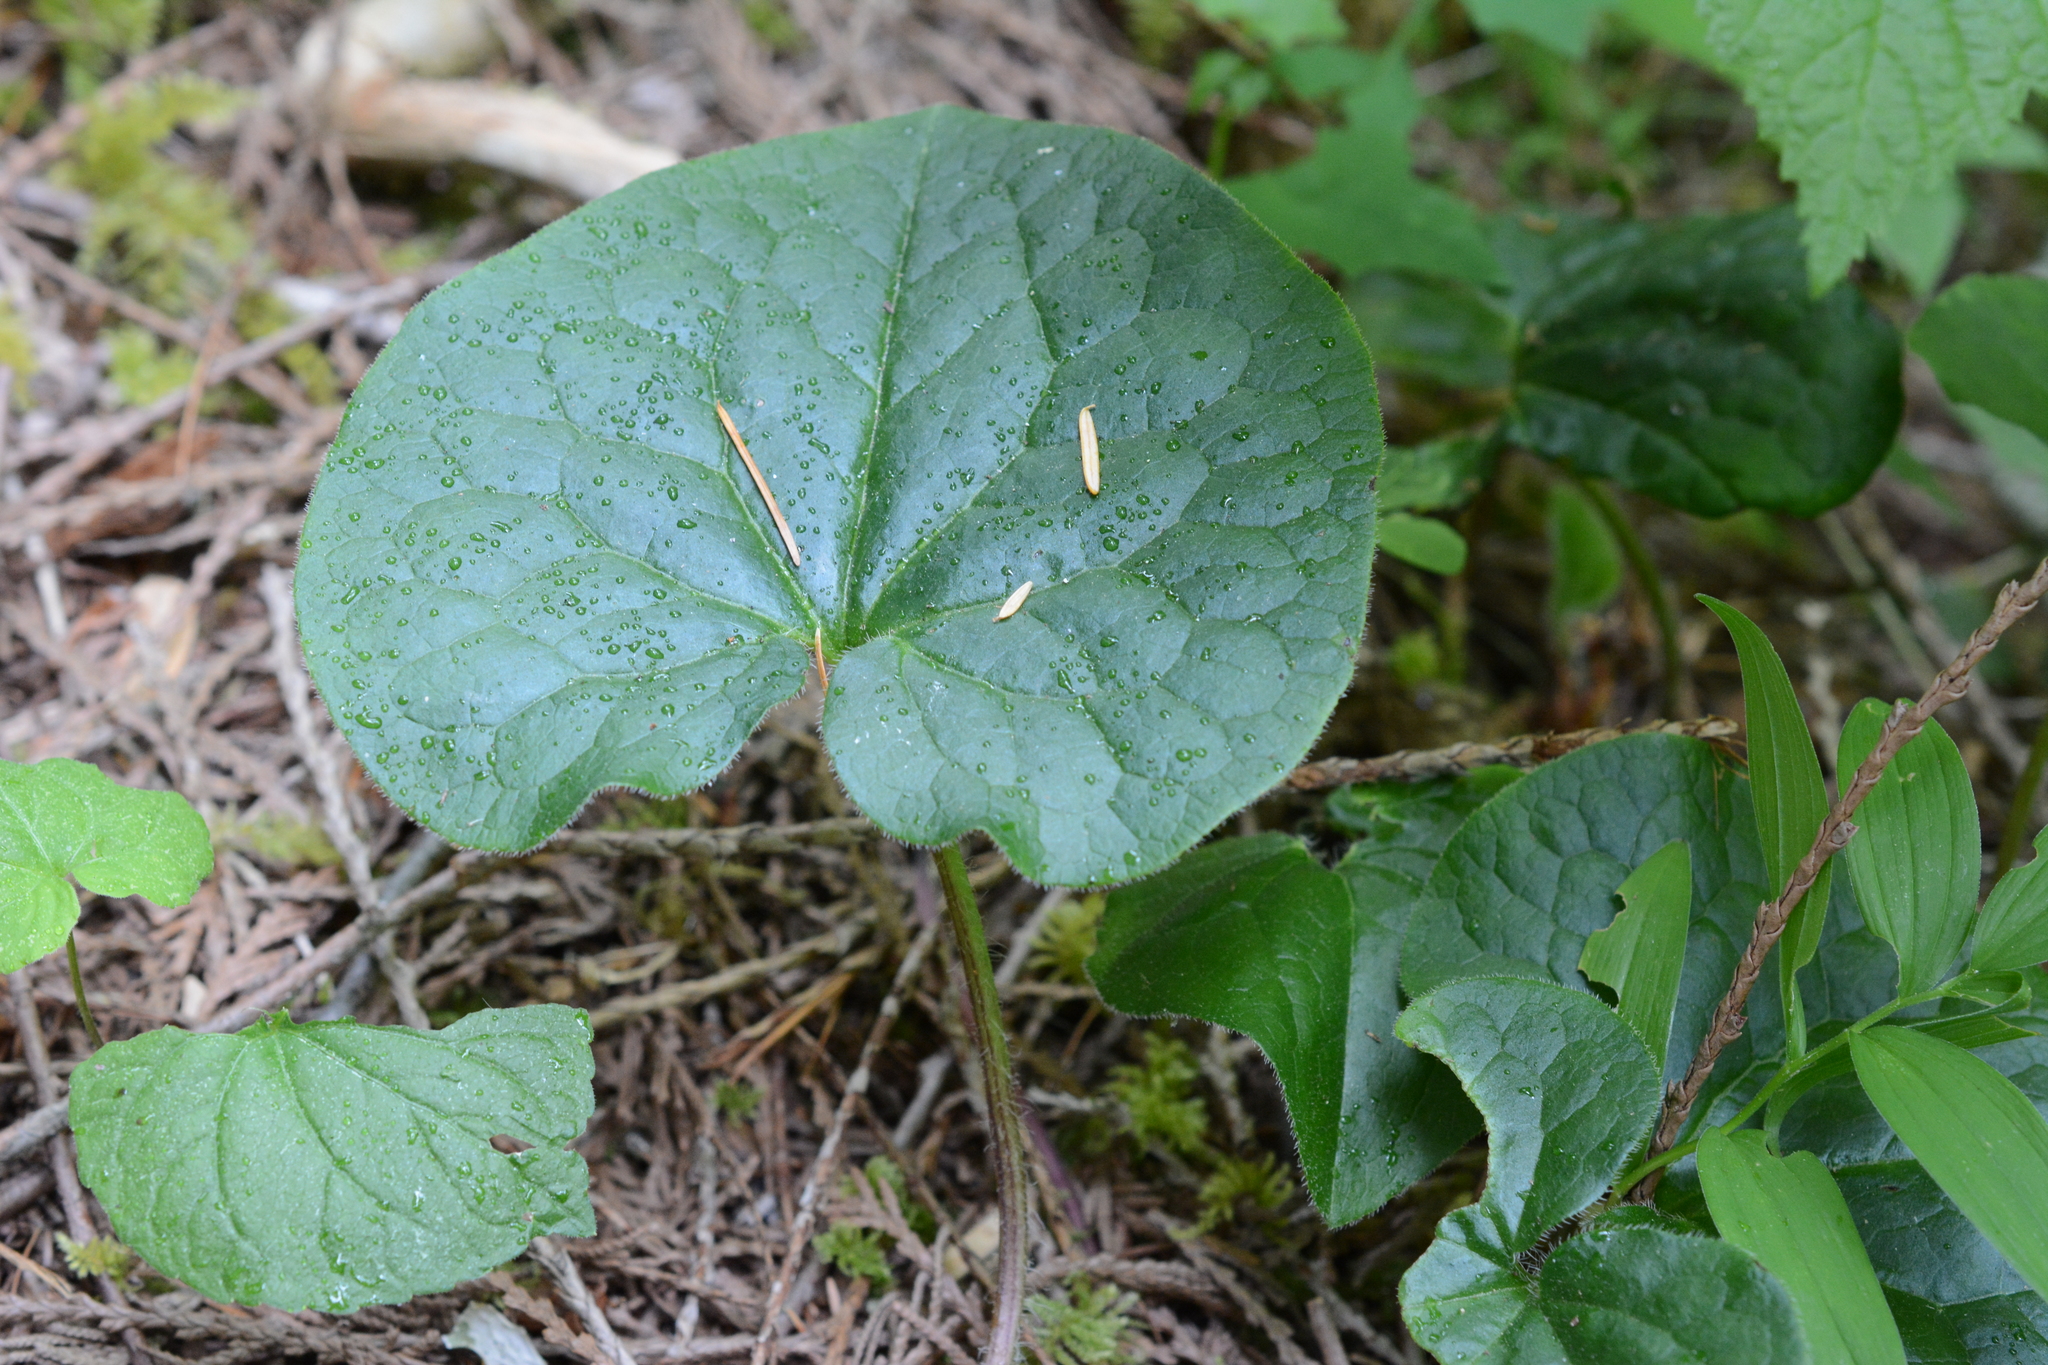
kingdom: Plantae
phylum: Tracheophyta
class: Magnoliopsida
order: Piperales
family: Aristolochiaceae
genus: Asarum
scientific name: Asarum caudatum
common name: Wild ginger
